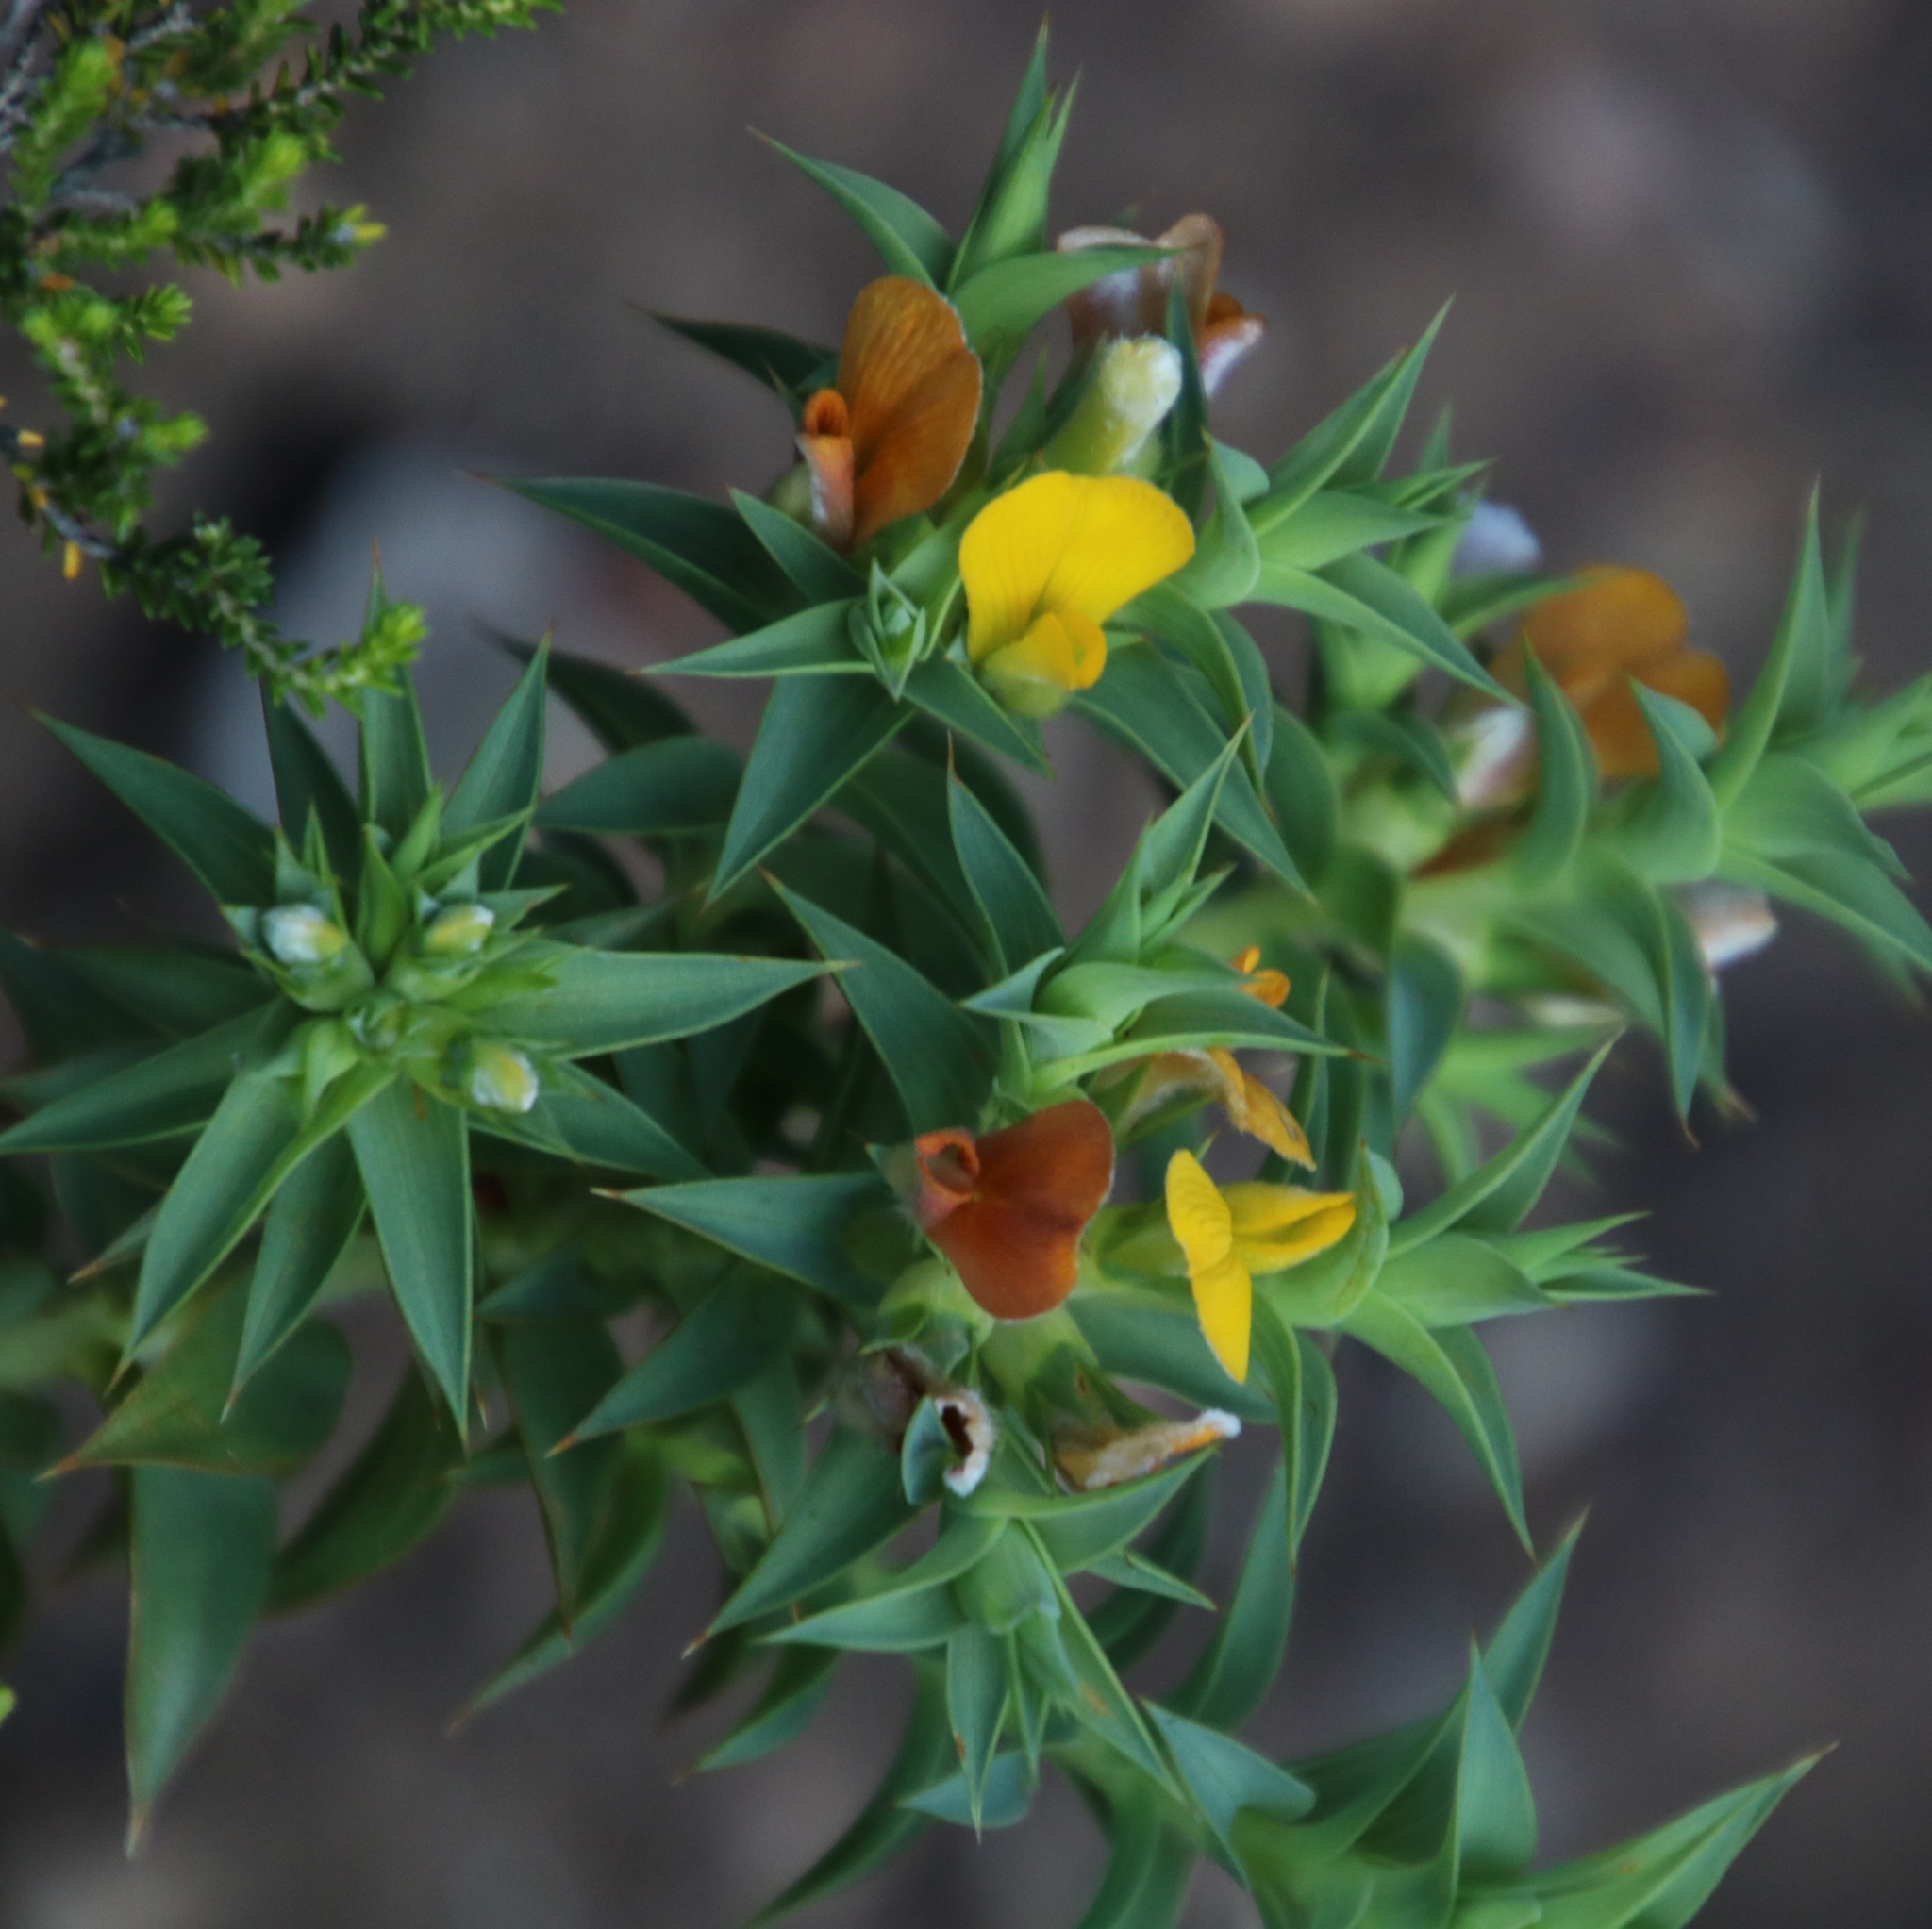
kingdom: Plantae
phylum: Tracheophyta
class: Magnoliopsida
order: Fabales
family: Fabaceae
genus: Aspalathus
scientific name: Aspalathus cordata
